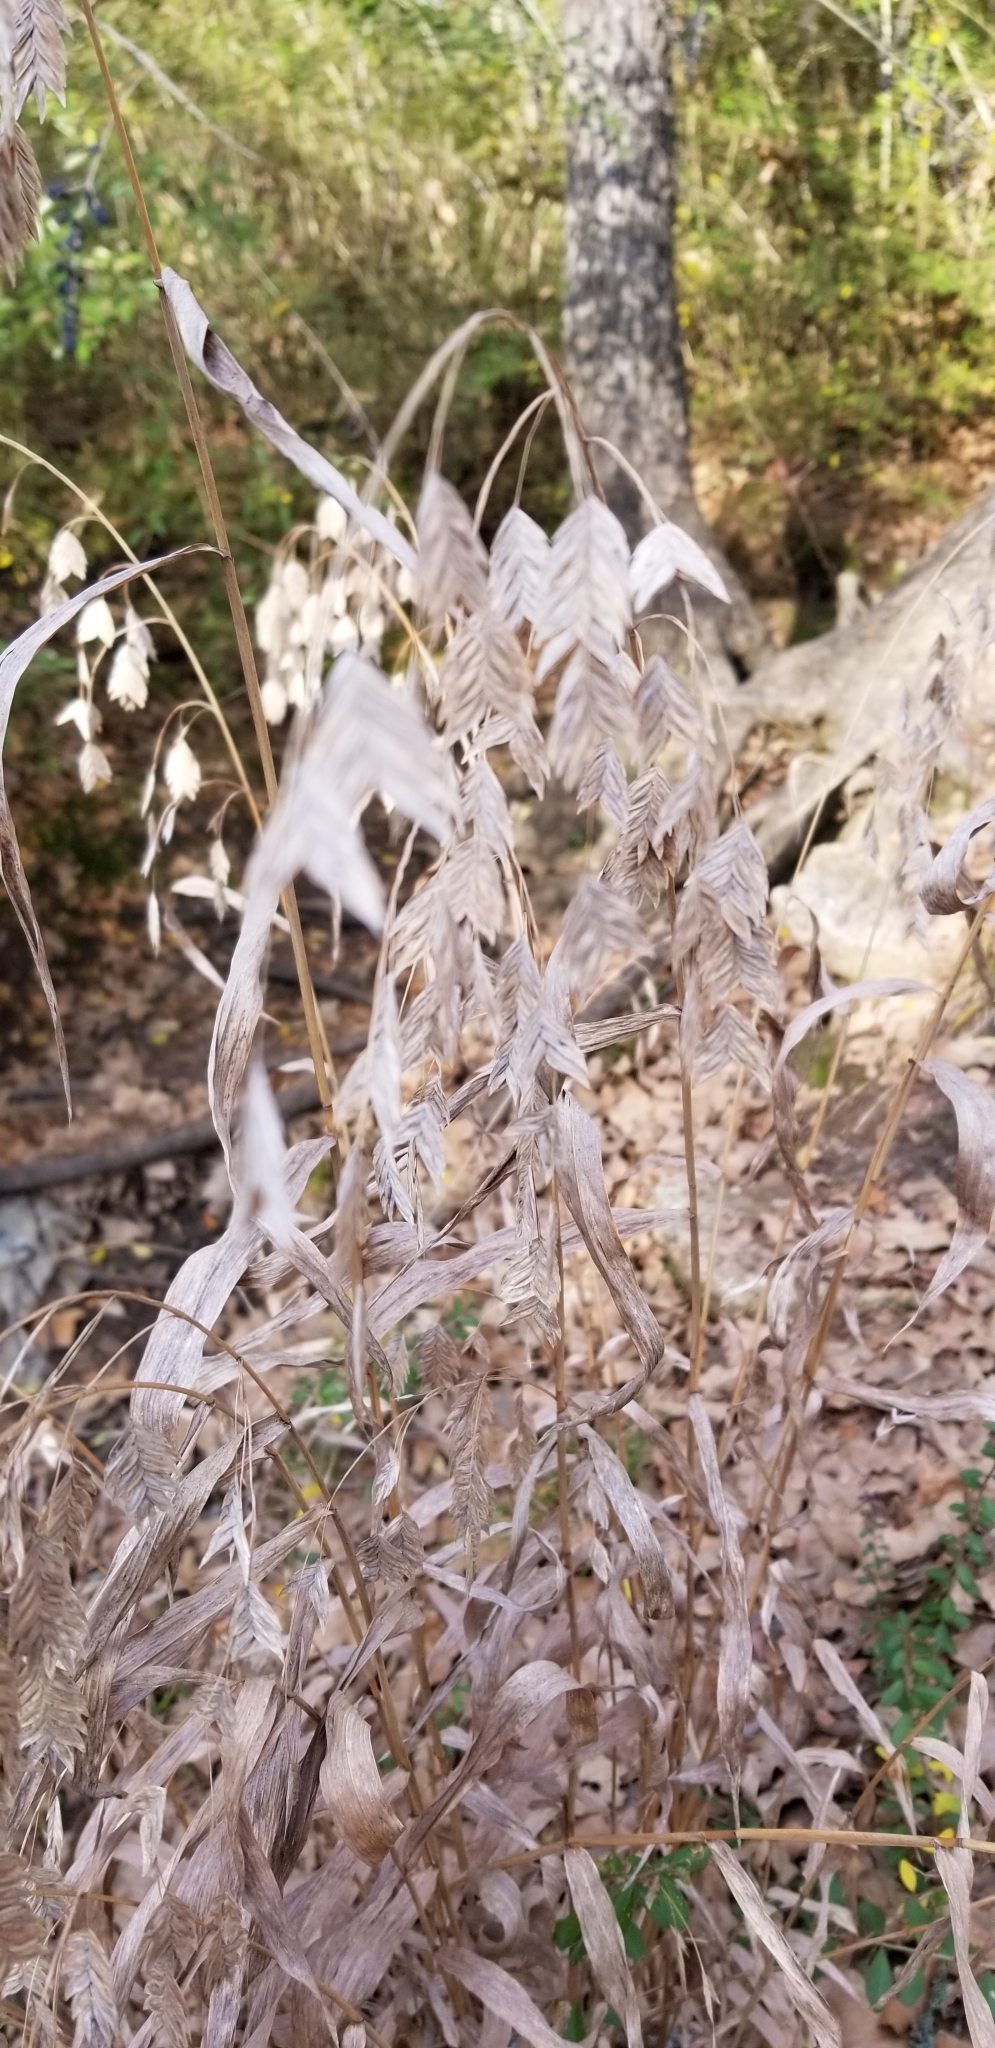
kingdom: Plantae
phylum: Tracheophyta
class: Liliopsida
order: Poales
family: Poaceae
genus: Chasmanthium
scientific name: Chasmanthium latifolium
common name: Broad-leaved chasmanthium
